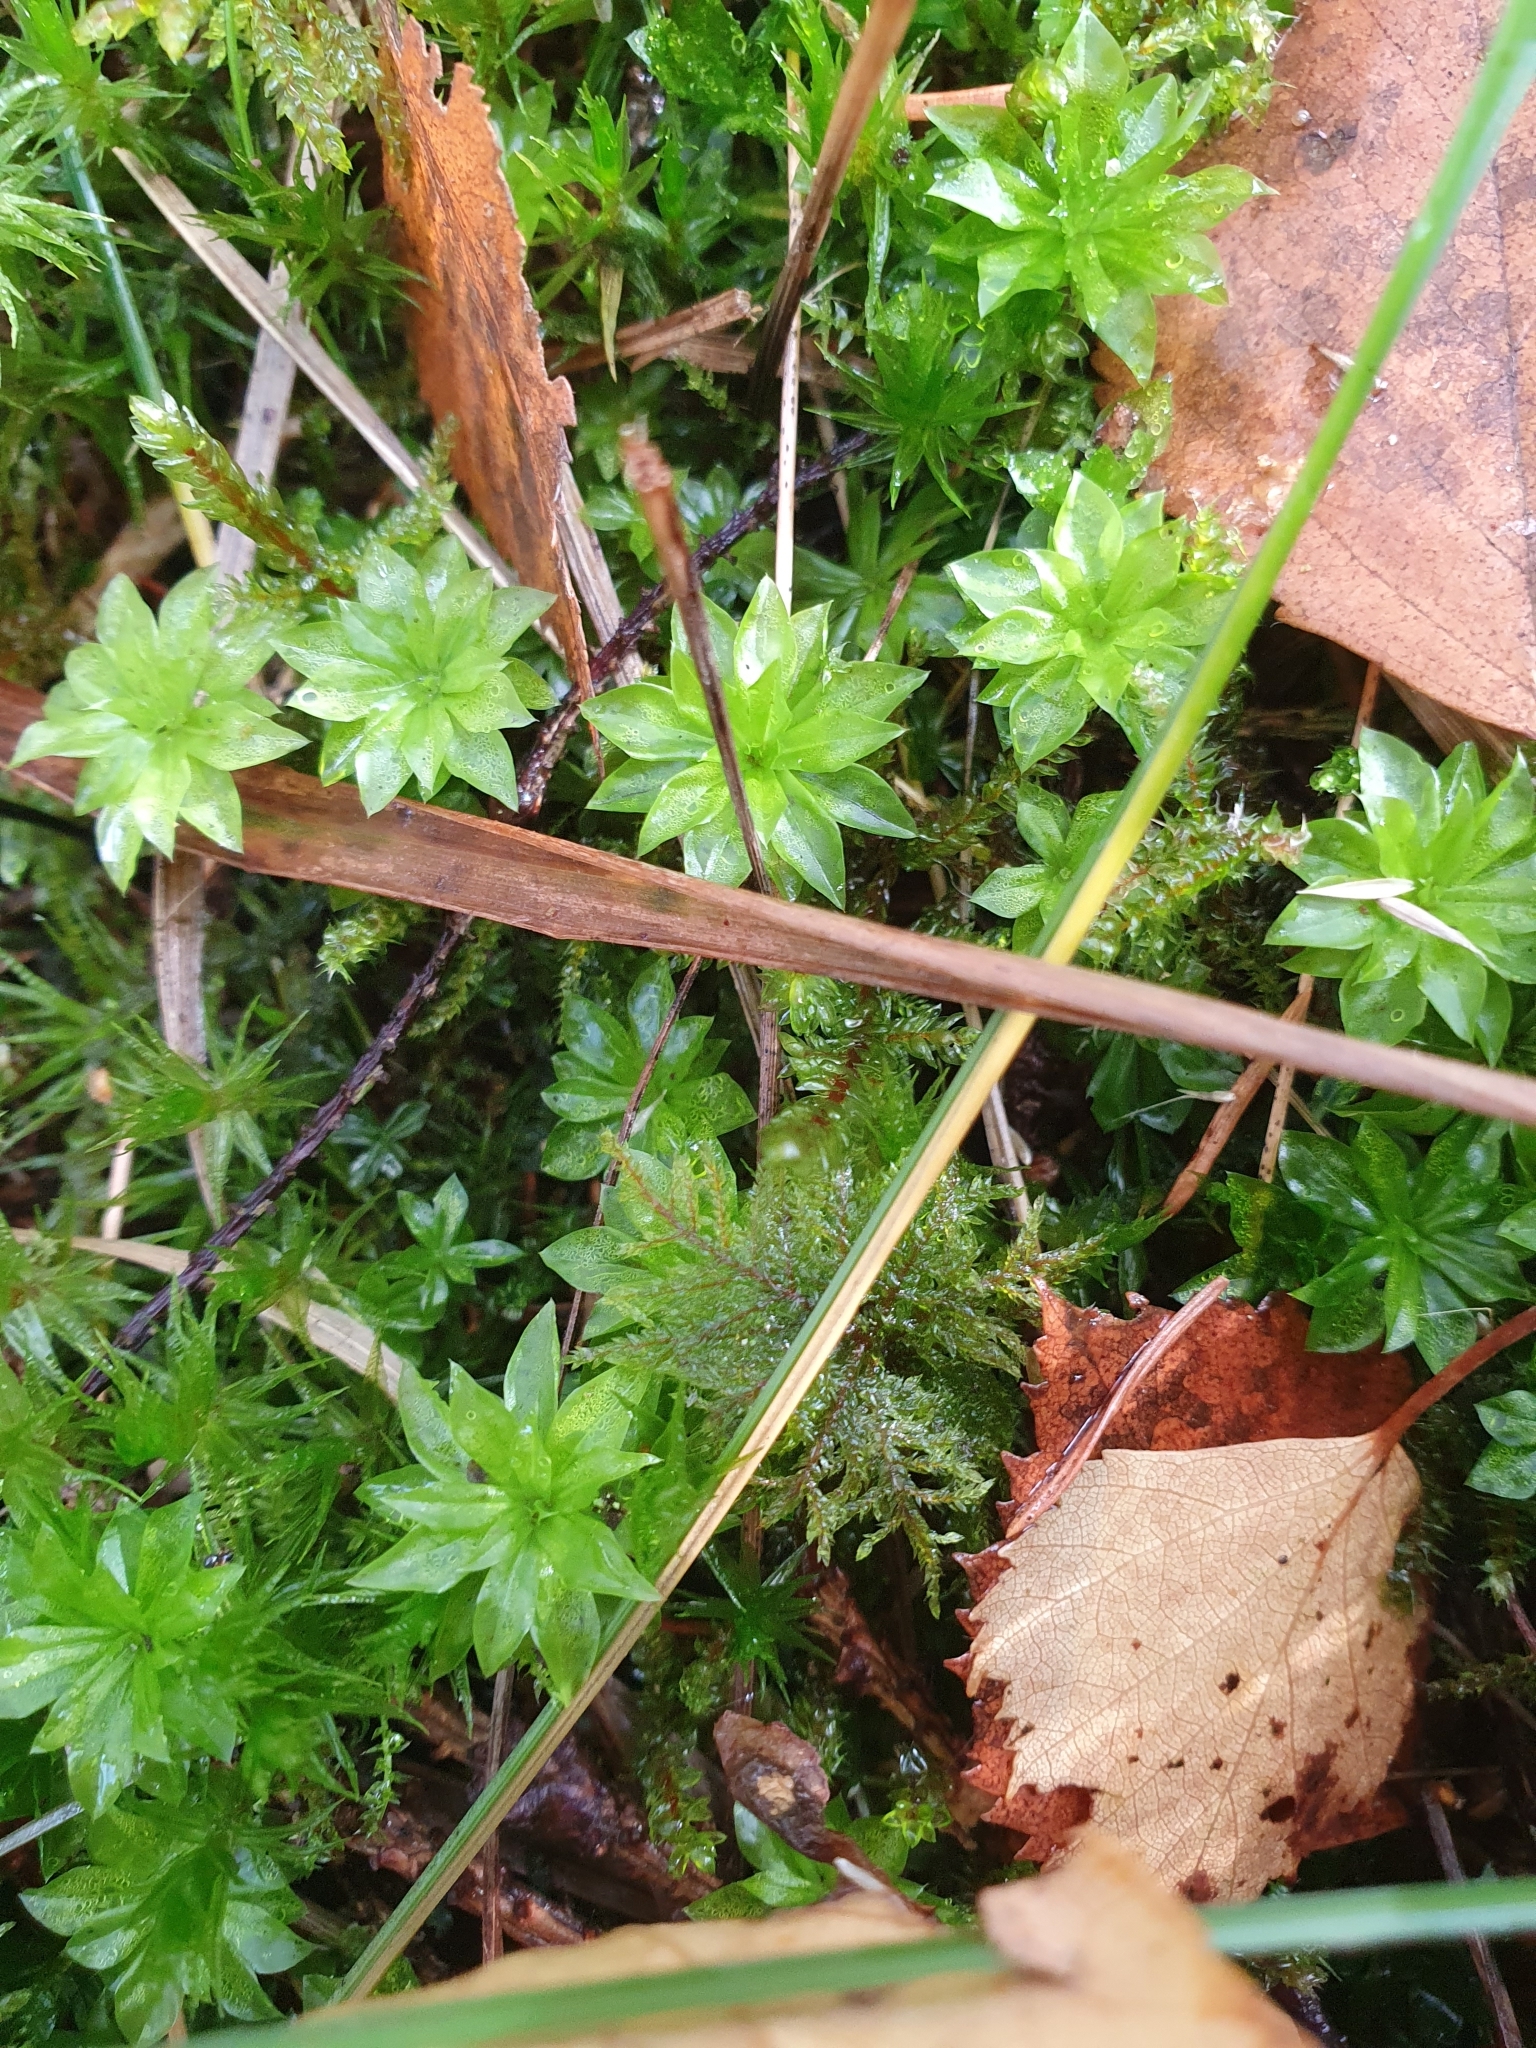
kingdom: Plantae
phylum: Bryophyta
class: Bryopsida
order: Bryales
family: Bryaceae
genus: Rhodobryum
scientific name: Rhodobryum roseum
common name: Rose-moss
